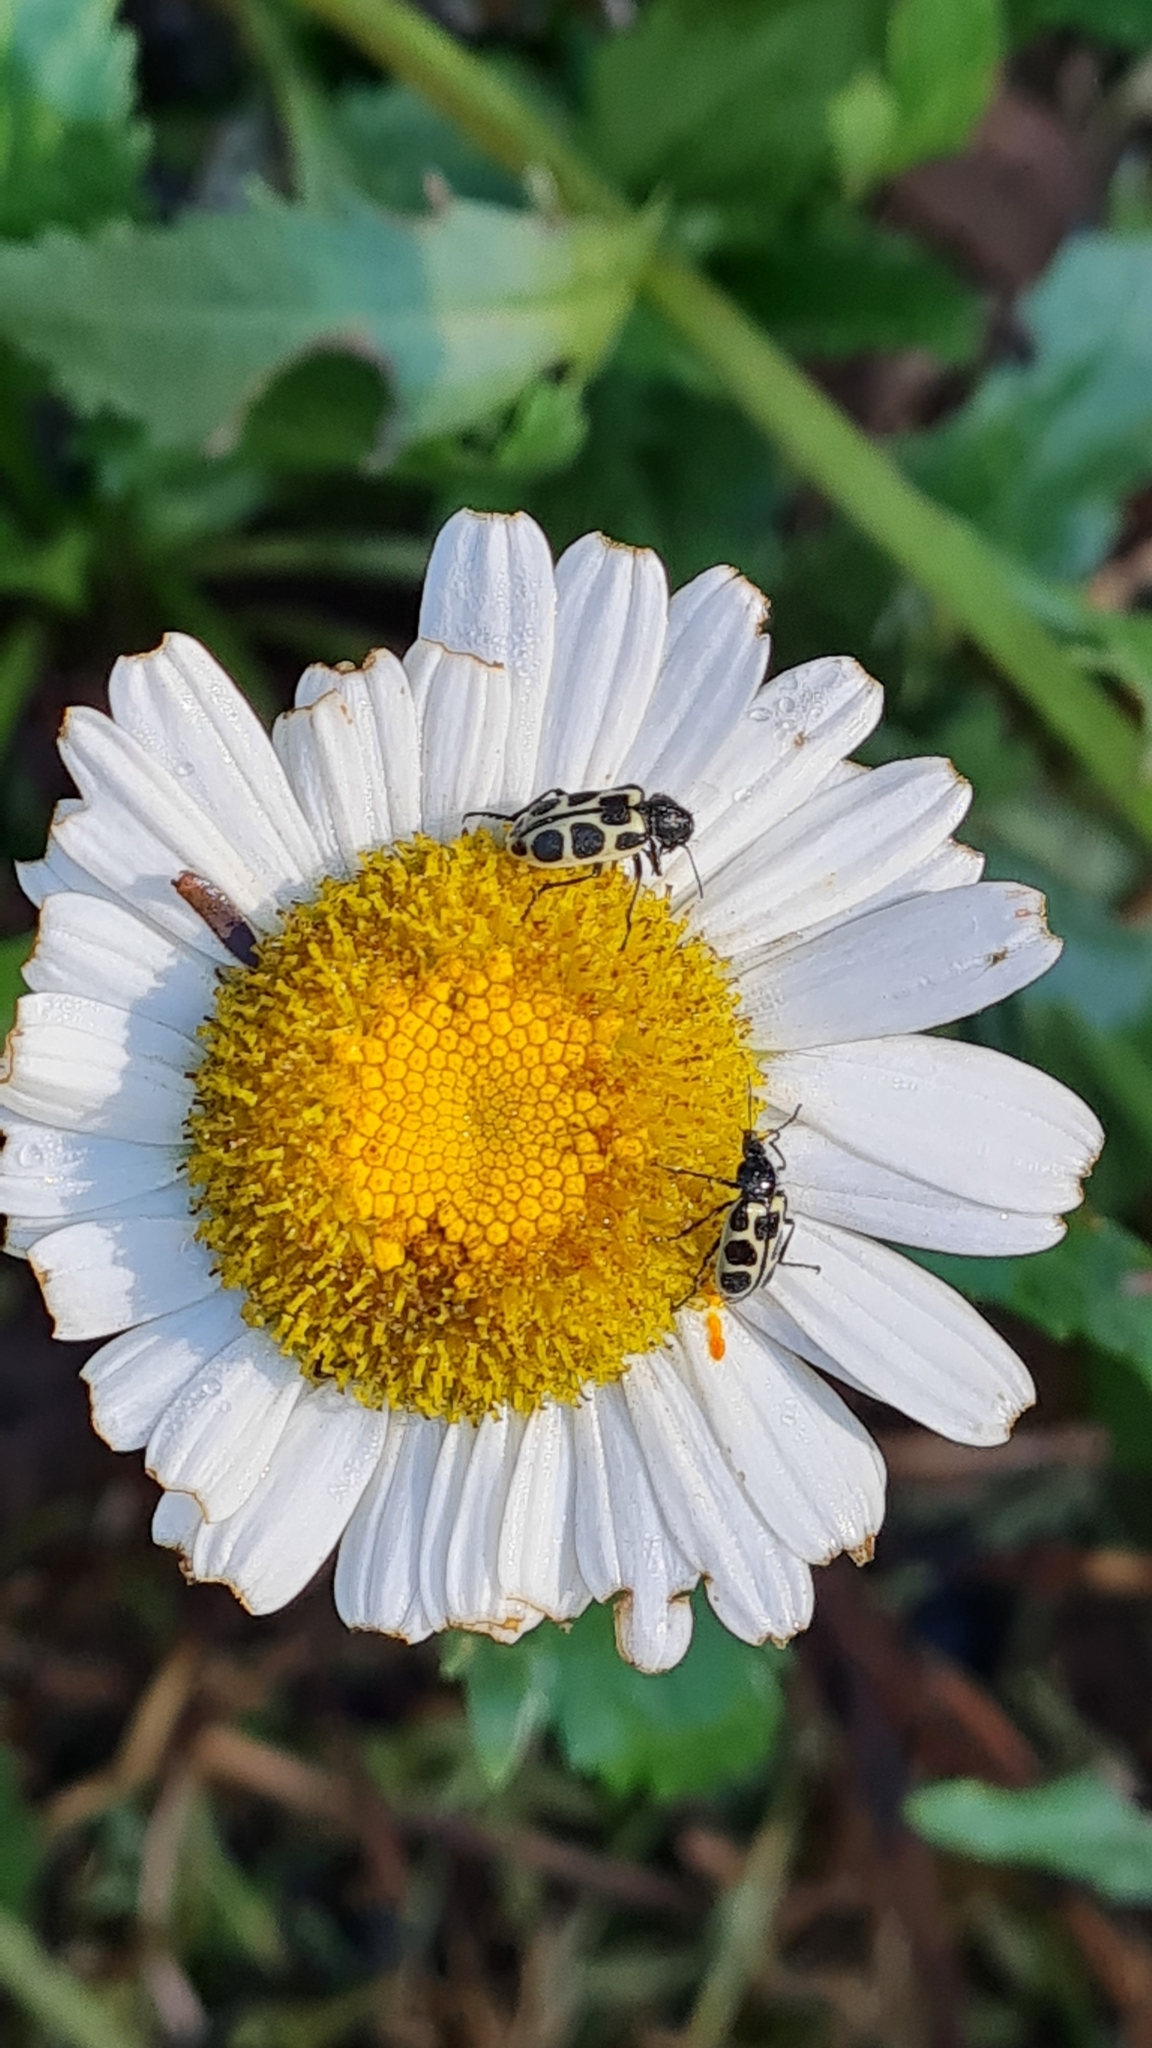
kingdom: Animalia
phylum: Arthropoda
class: Insecta
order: Coleoptera
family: Melyridae
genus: Astylus
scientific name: Astylus
